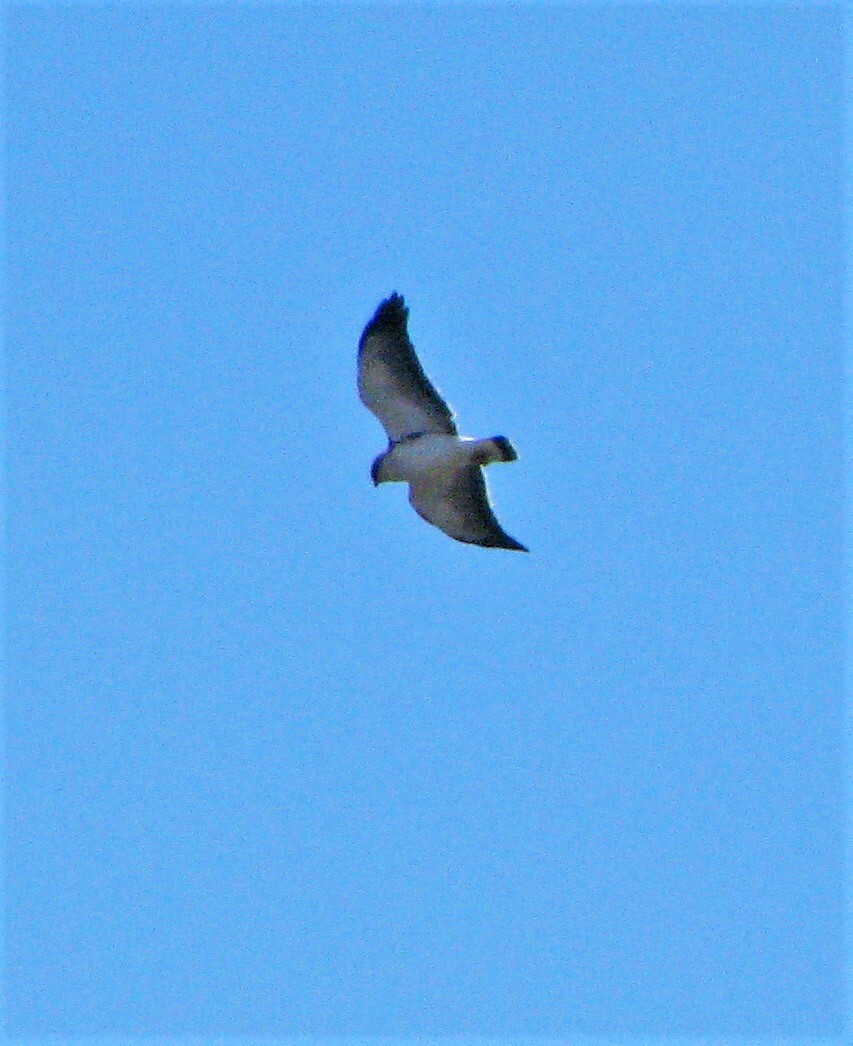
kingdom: Animalia
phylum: Chordata
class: Aves
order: Accipitriformes
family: Accipitridae
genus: Buteo
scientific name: Buteo polyosoma
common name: Variable hawk
